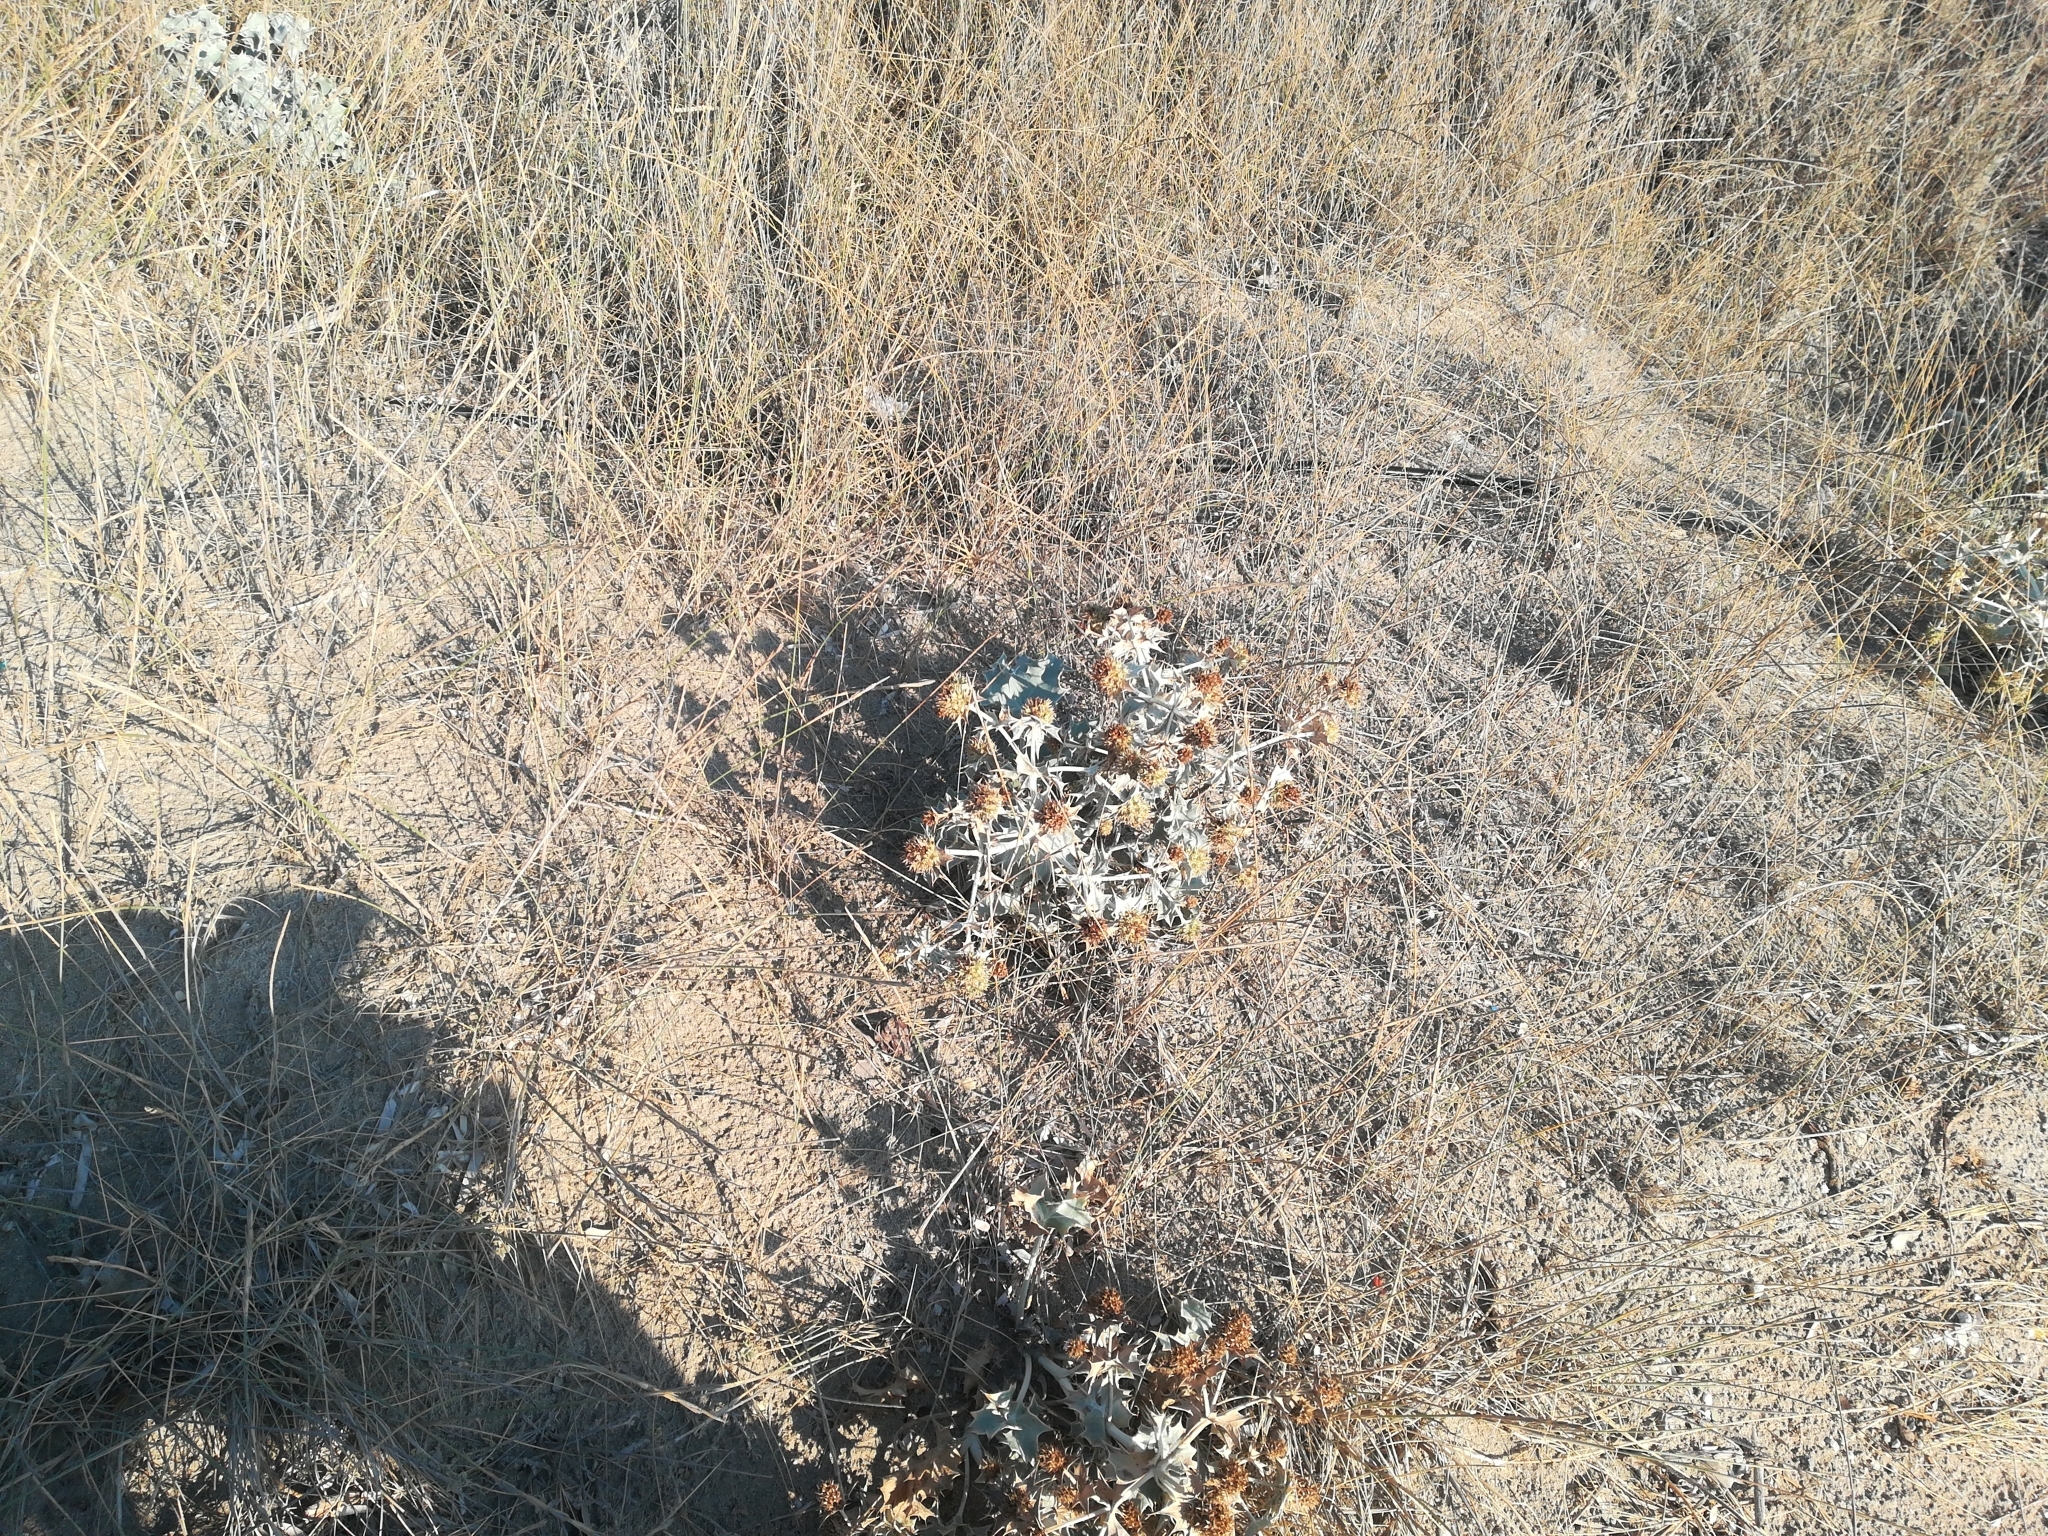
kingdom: Plantae
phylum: Tracheophyta
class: Magnoliopsida
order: Apiales
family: Apiaceae
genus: Eryngium
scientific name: Eryngium maritimum
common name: Sea-holly
